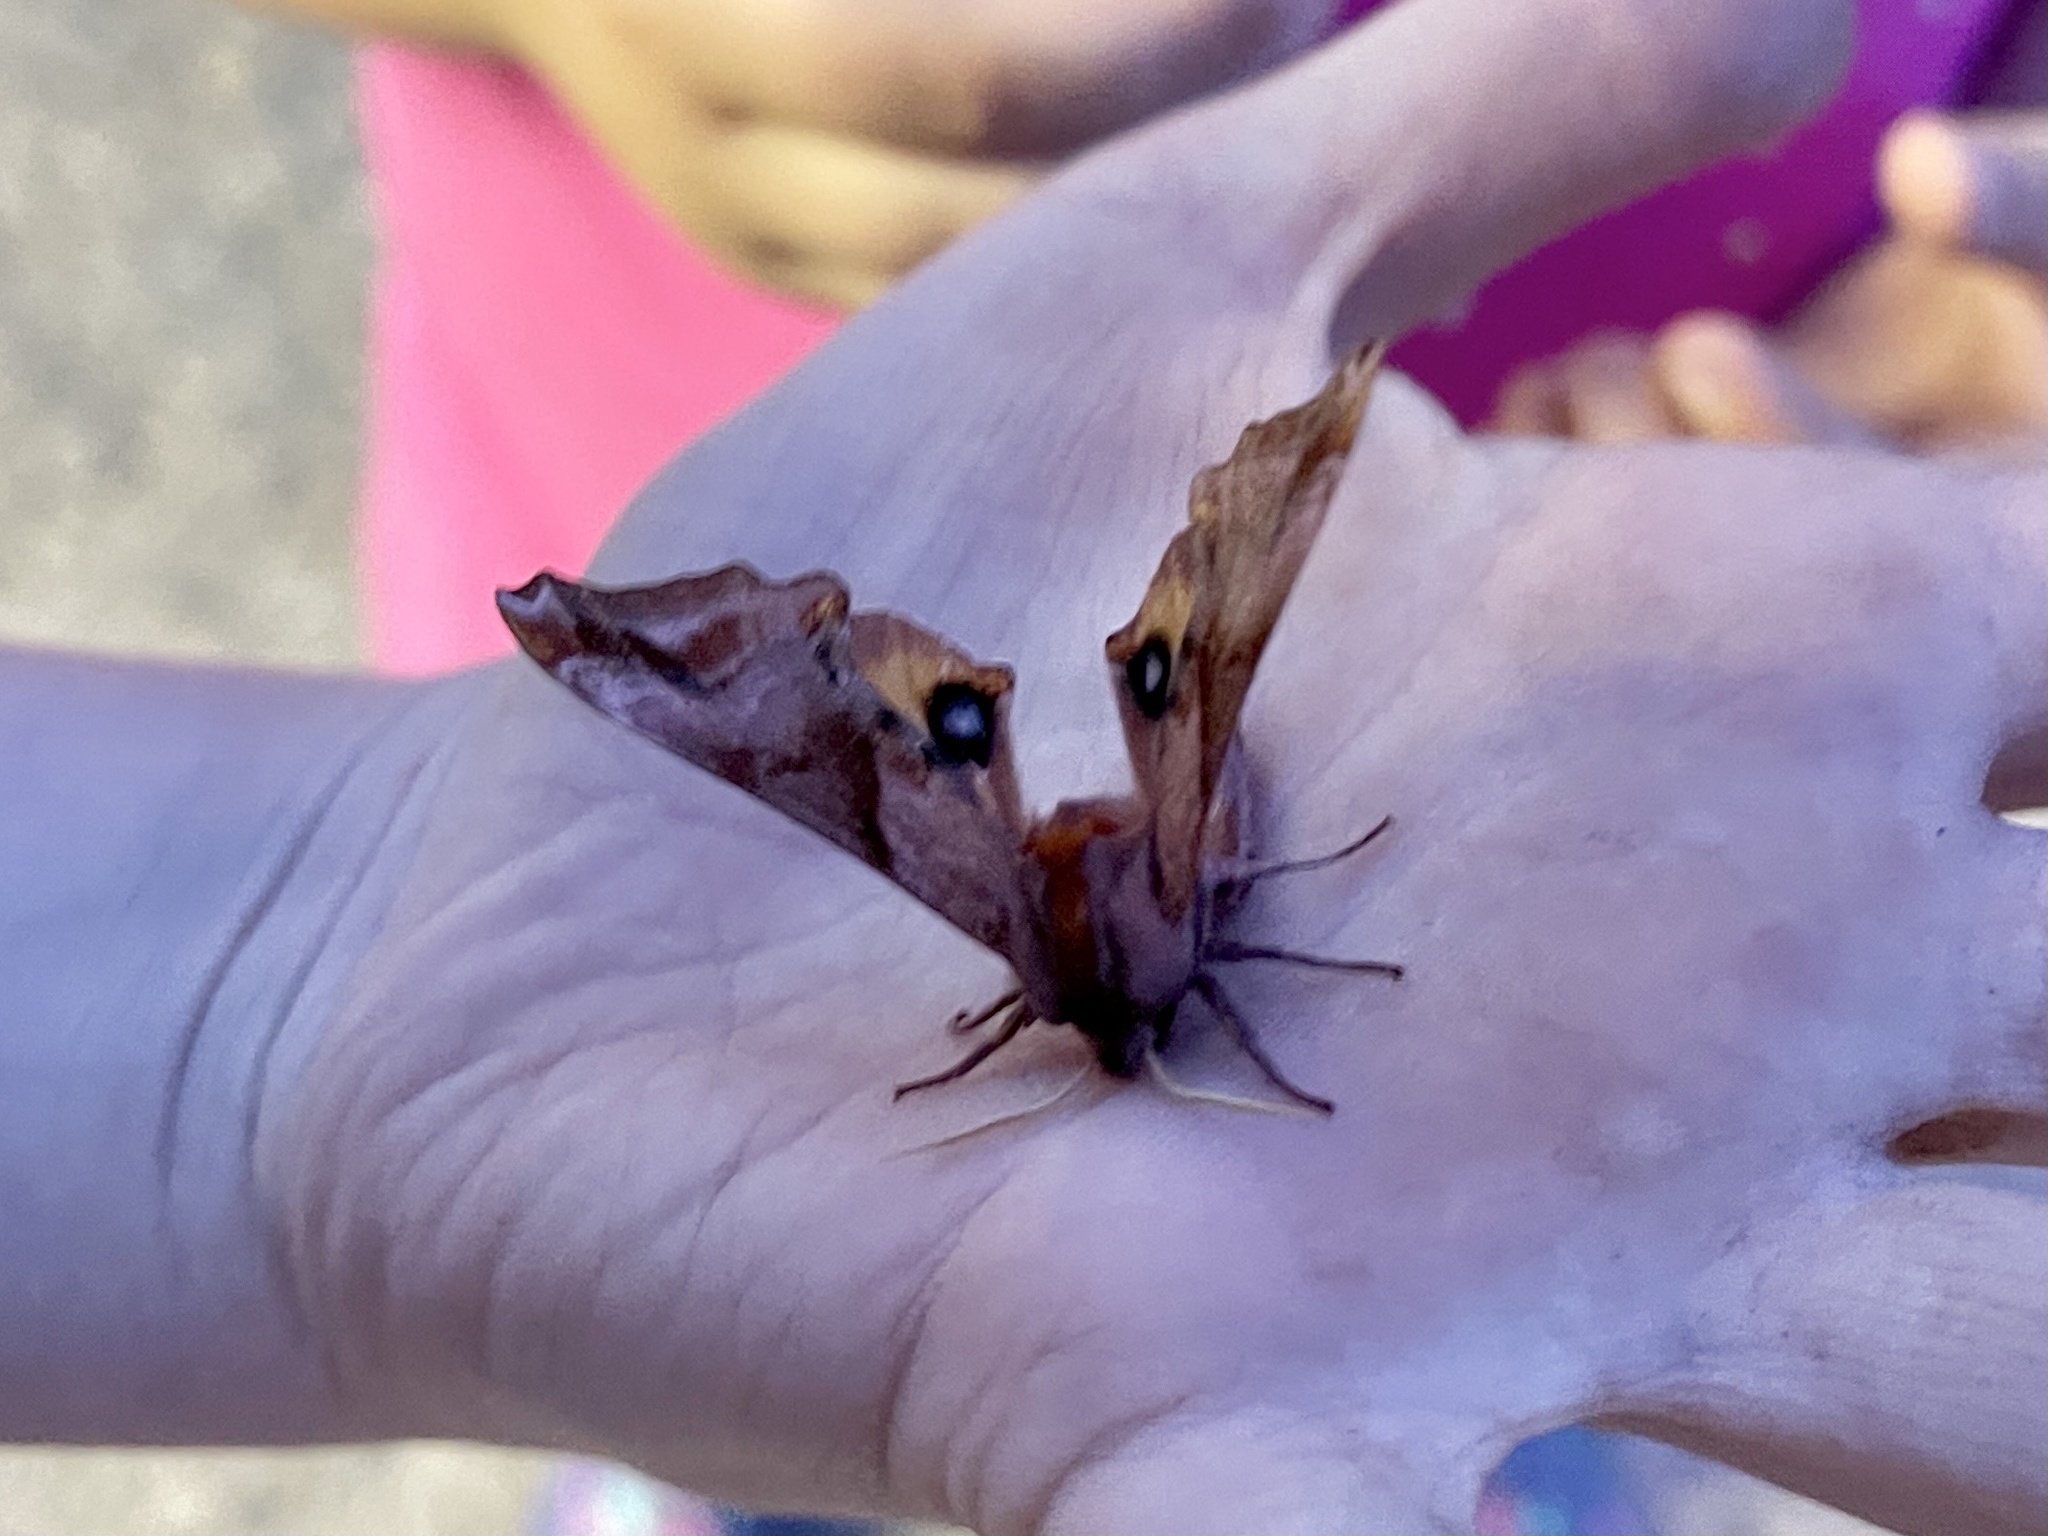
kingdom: Animalia
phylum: Arthropoda
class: Insecta
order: Lepidoptera
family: Sphingidae
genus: Paonias
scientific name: Paonias myops
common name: Small-eyed sphinx
